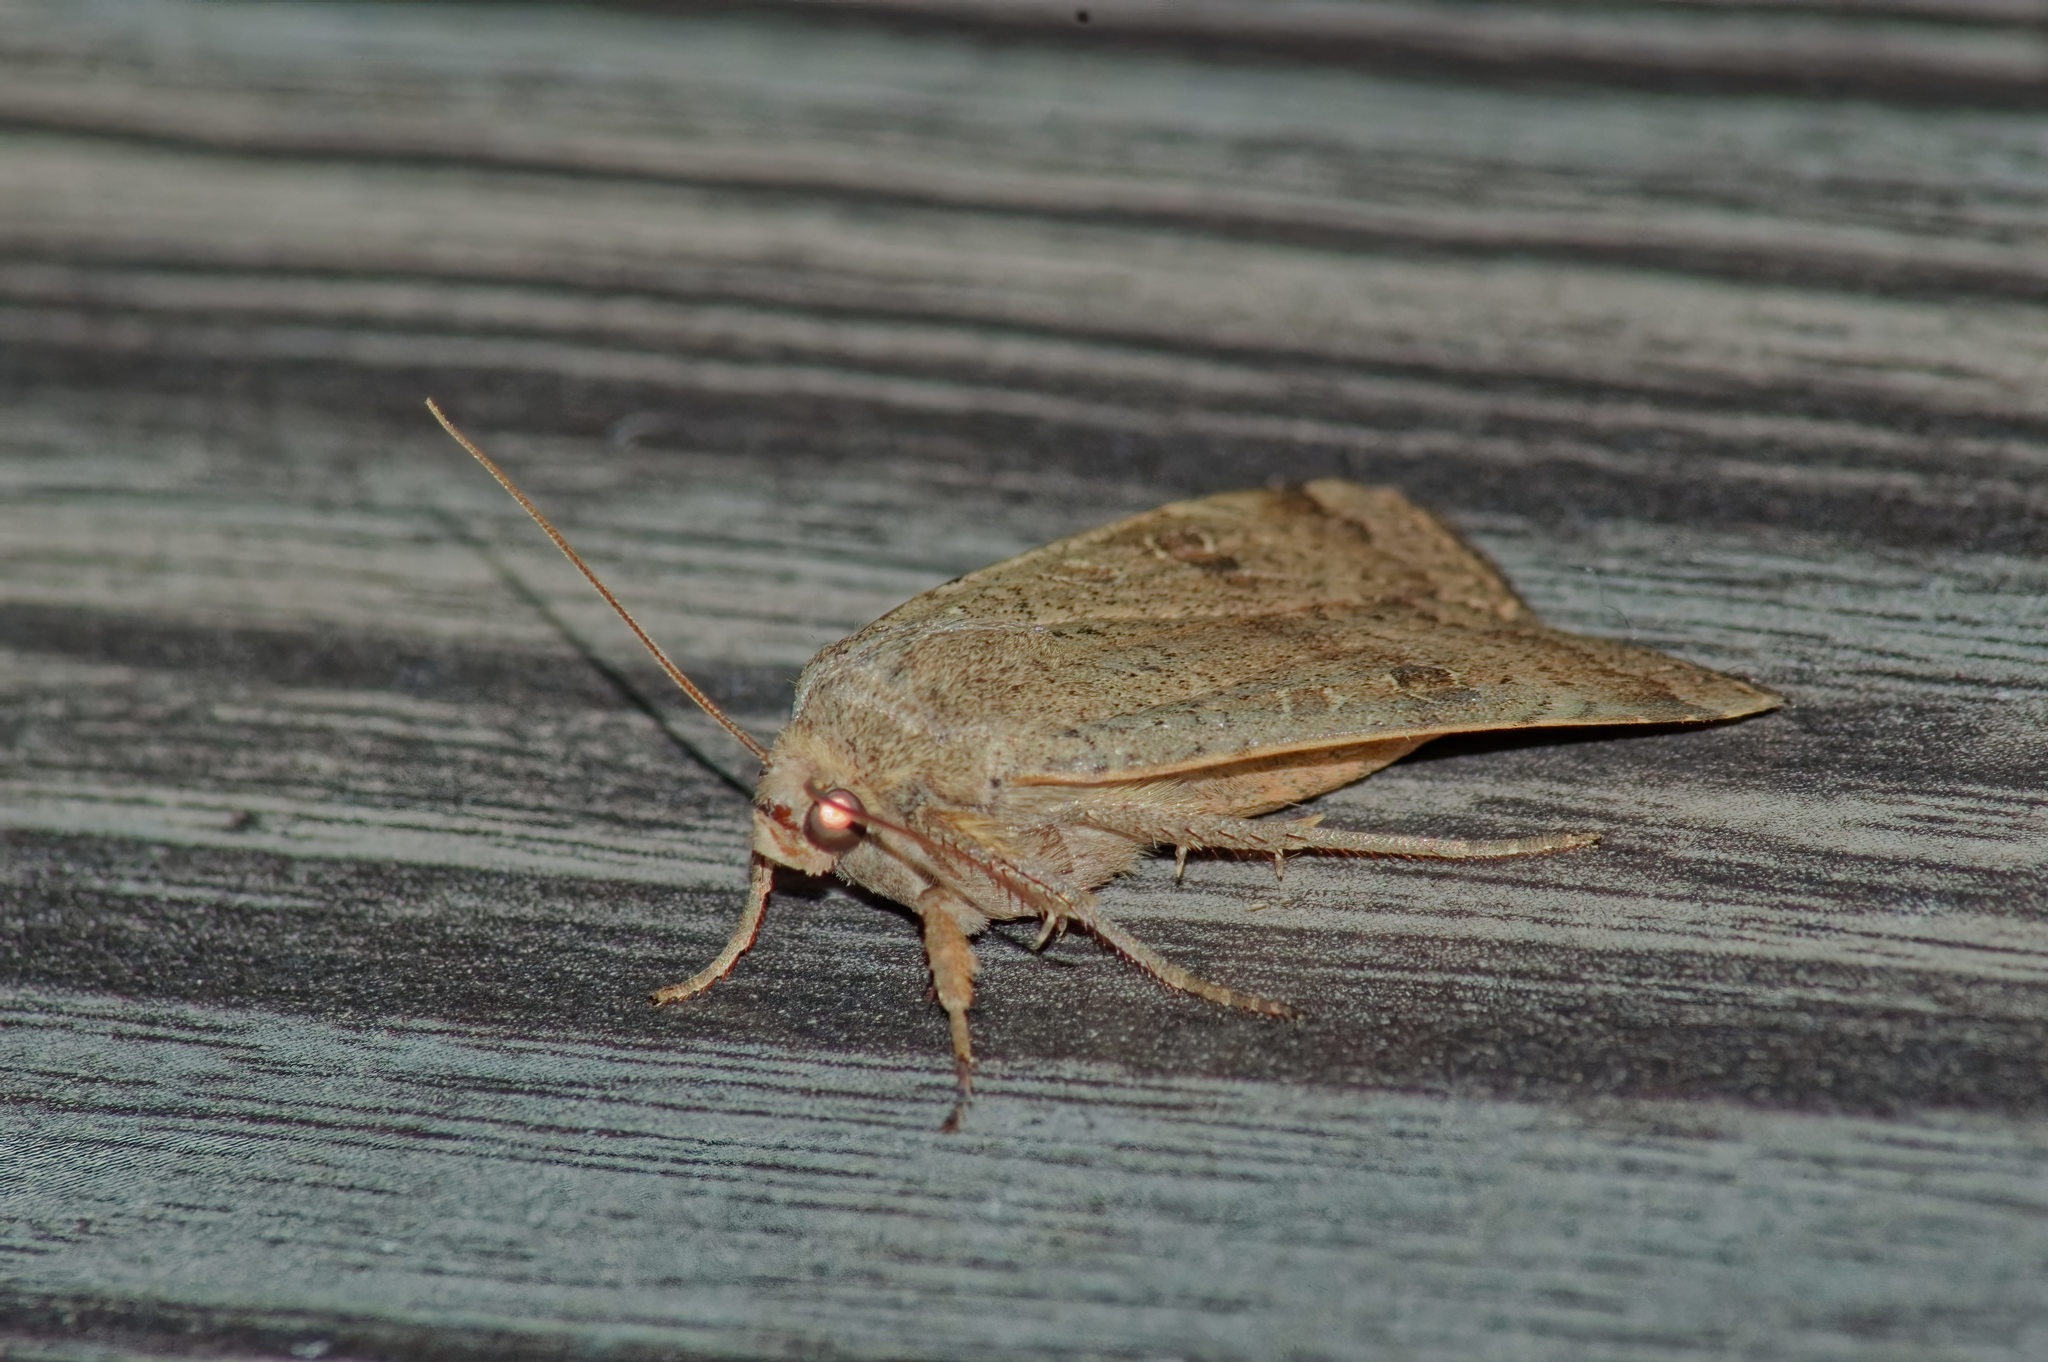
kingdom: Animalia
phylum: Arthropoda
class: Insecta
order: Lepidoptera
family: Noctuidae
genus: Noctua
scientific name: Noctua comes
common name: Lesser yellow underwing
